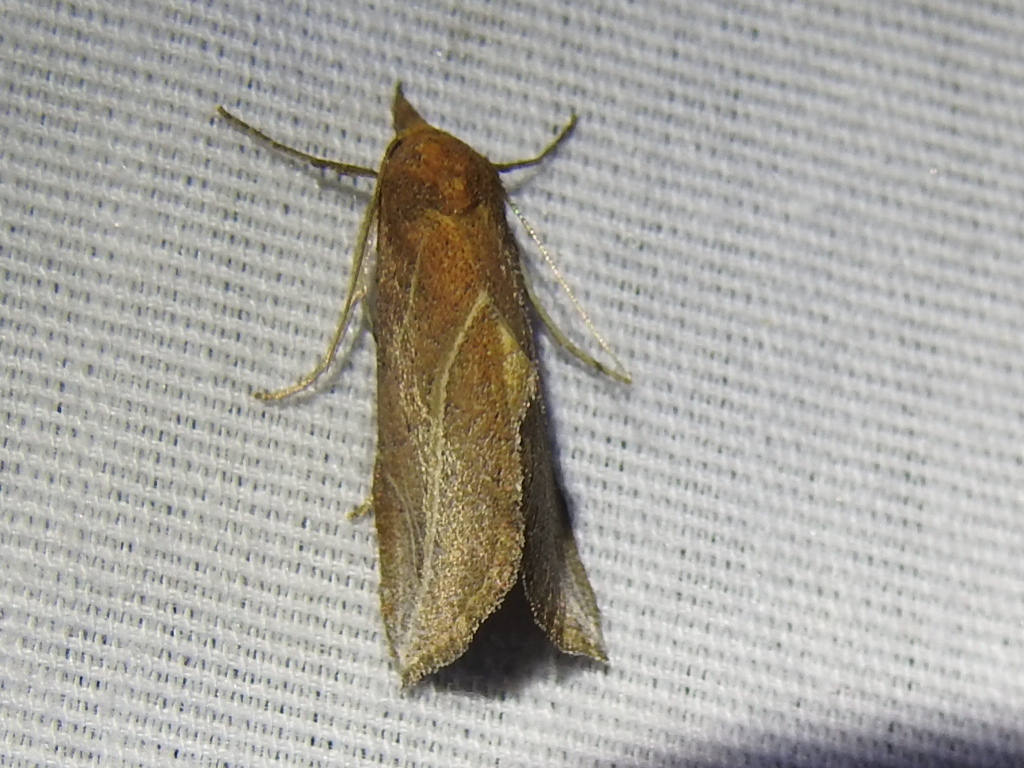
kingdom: Animalia
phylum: Arthropoda
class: Insecta
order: Lepidoptera
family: Erebidae
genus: Phyprosopus
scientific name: Phyprosopus callitrichoides
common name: Curved-lined owlet
